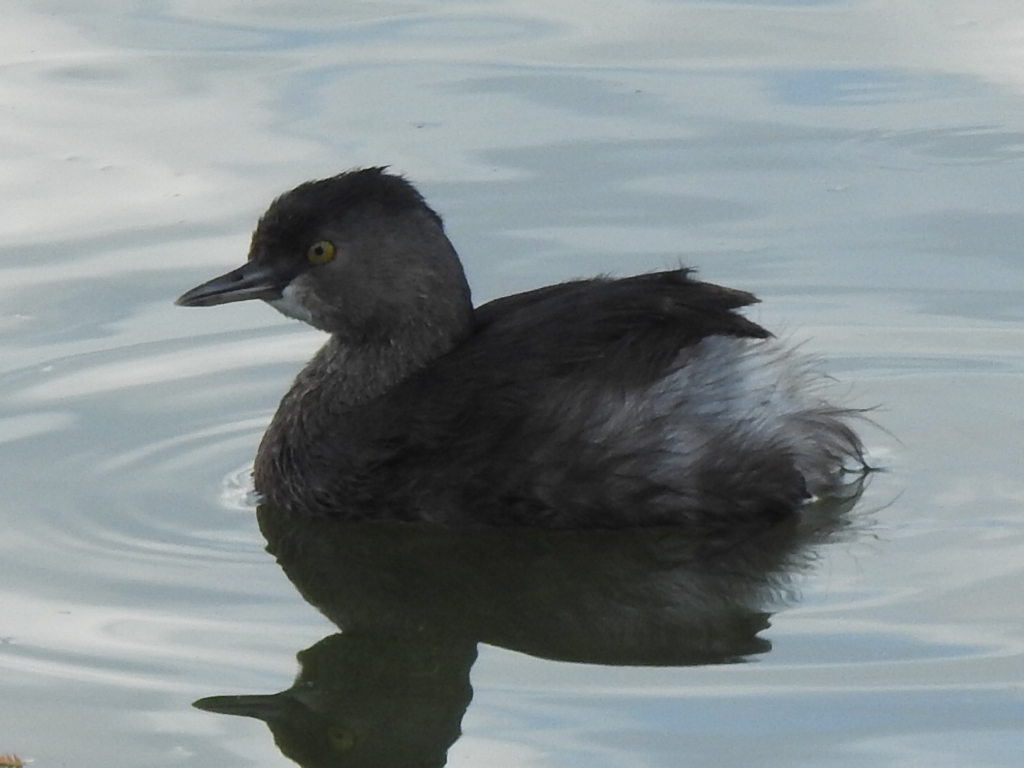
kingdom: Animalia
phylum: Chordata
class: Aves
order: Podicipediformes
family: Podicipedidae
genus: Tachybaptus
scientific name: Tachybaptus dominicus
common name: Least grebe
